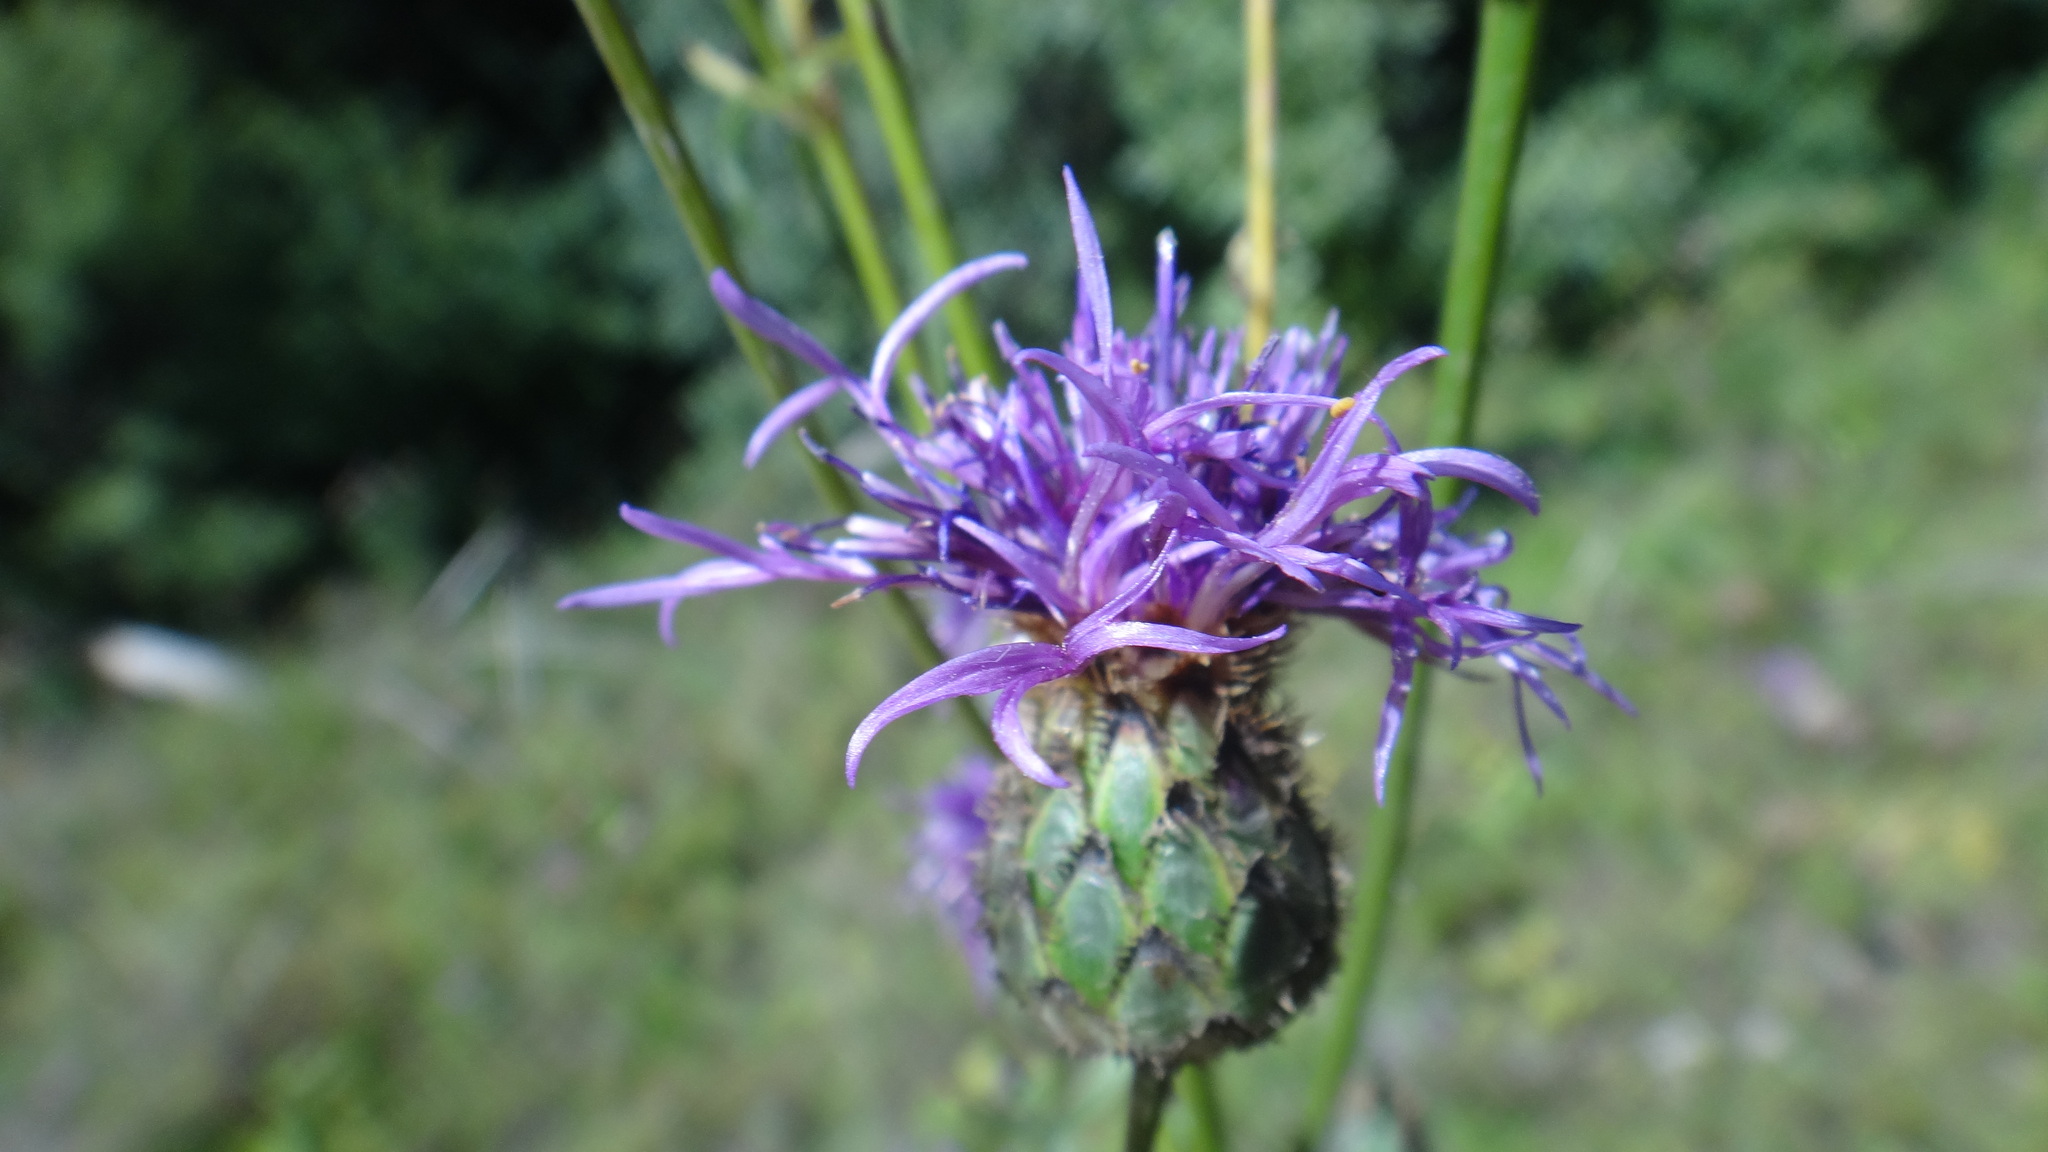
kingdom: Plantae
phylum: Tracheophyta
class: Magnoliopsida
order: Asterales
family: Asteraceae
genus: Centaurea
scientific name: Centaurea apiculata
